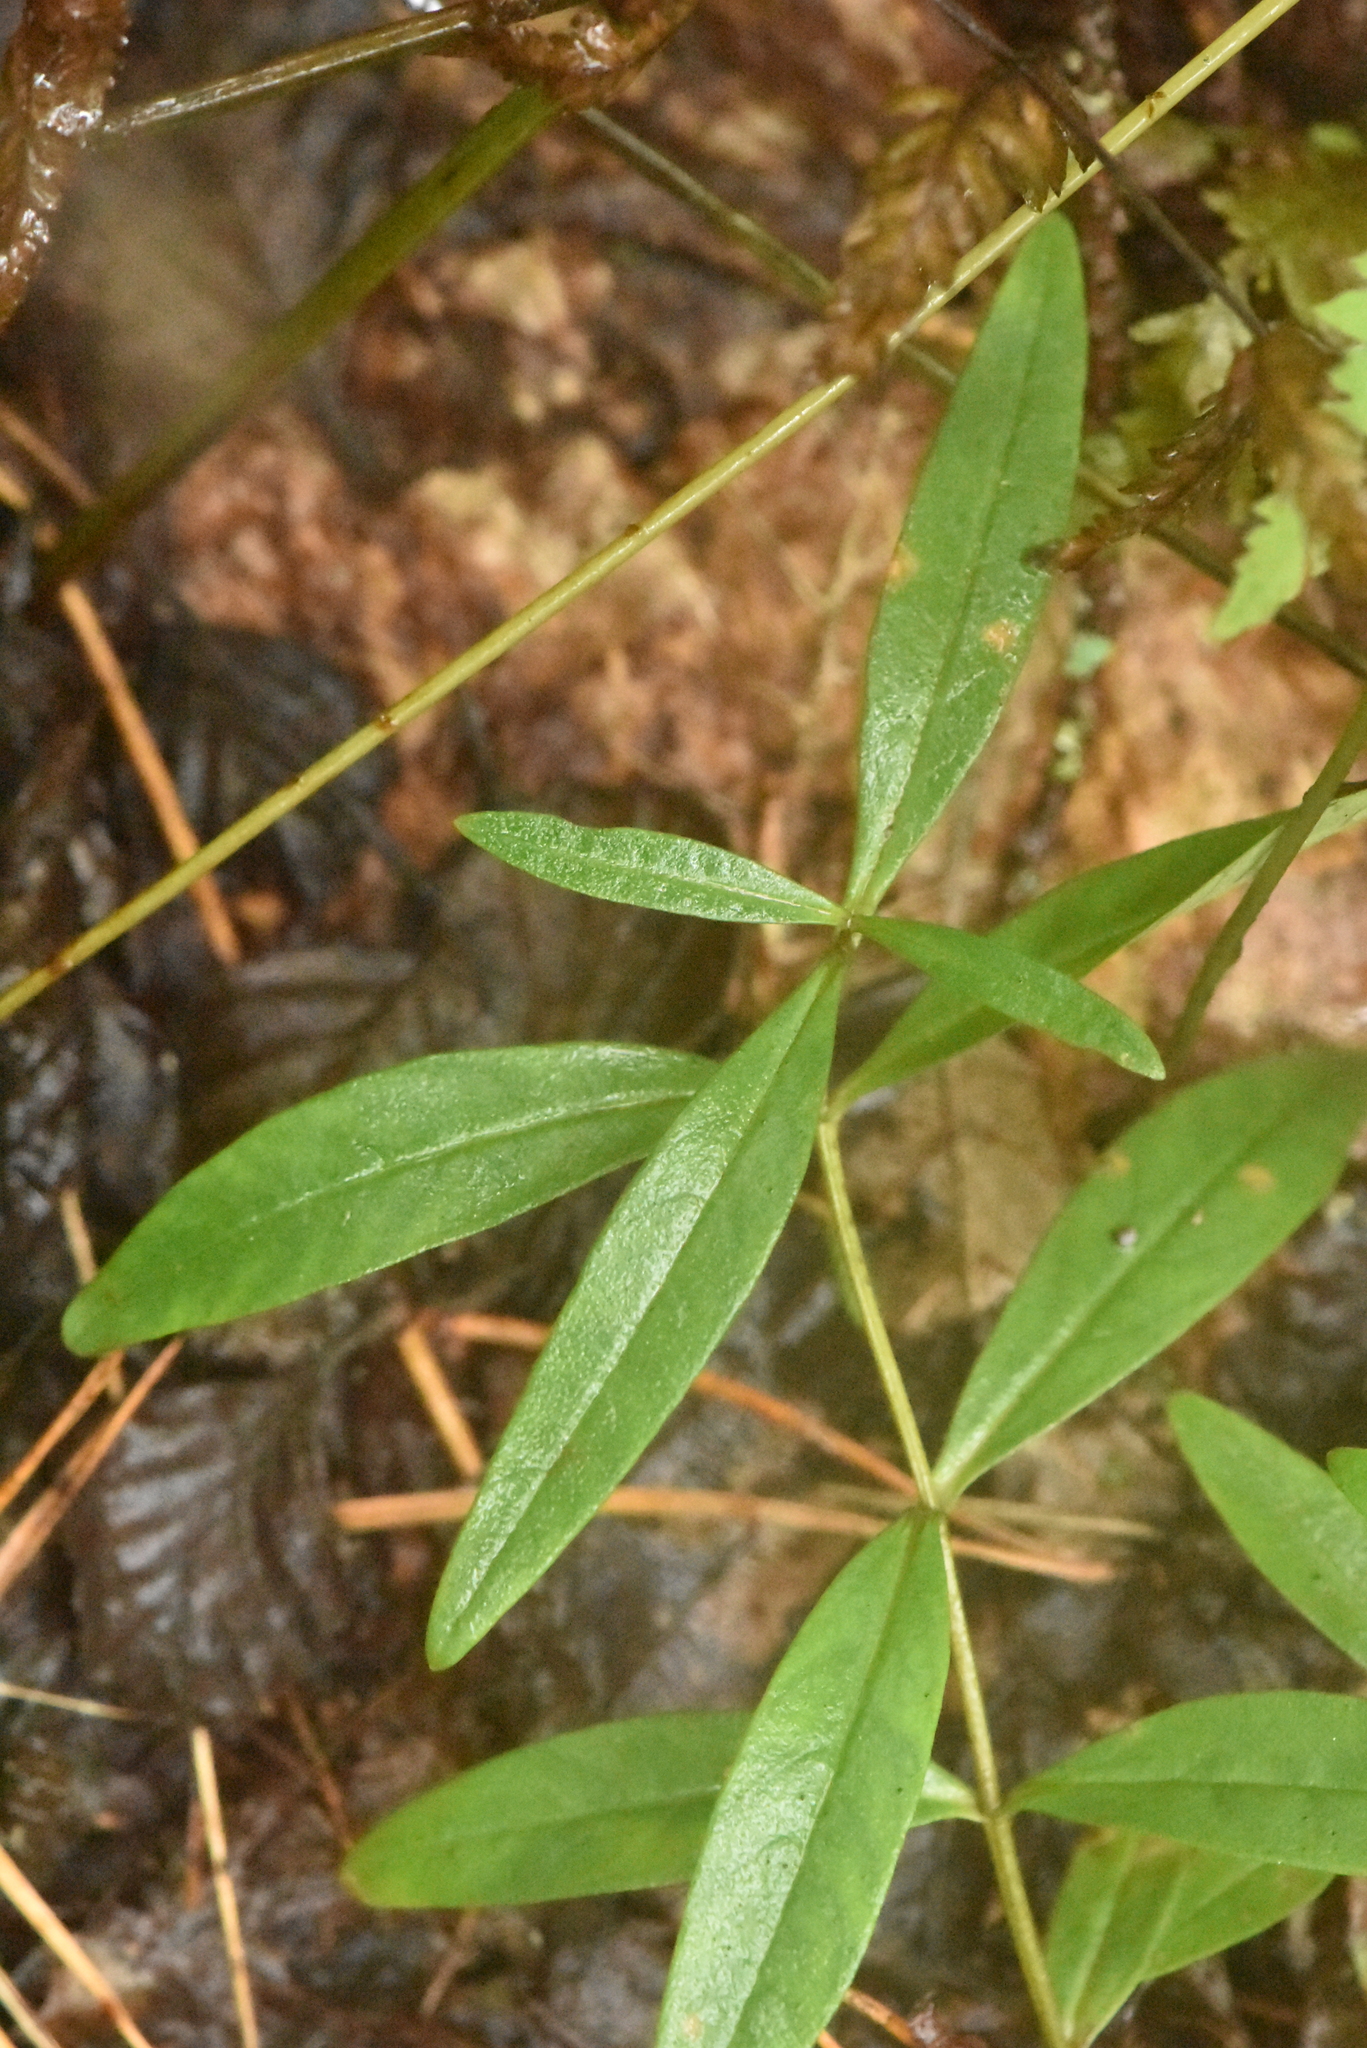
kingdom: Plantae
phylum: Tracheophyta
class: Magnoliopsida
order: Ericales
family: Primulaceae
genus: Lysimachia
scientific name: Lysimachia thyrsiflora
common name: Tufted loosestrife
